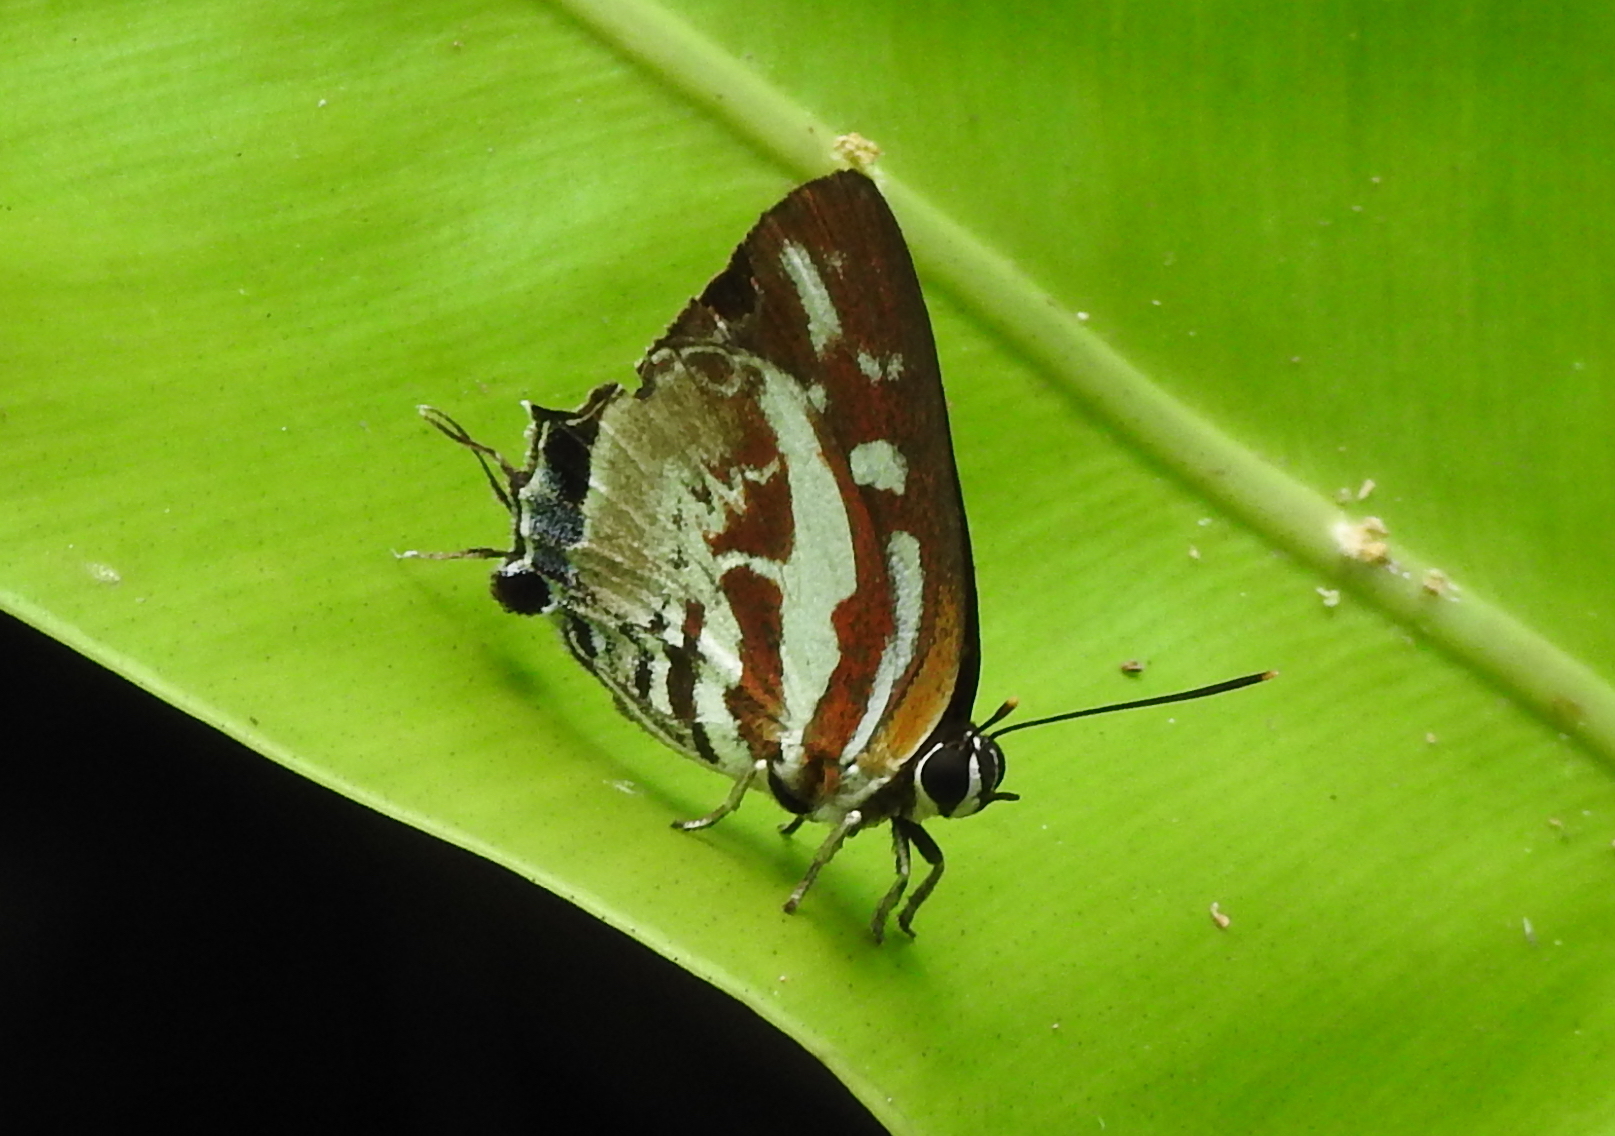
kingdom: Animalia
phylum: Arthropoda
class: Insecta
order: Lepidoptera
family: Lycaenidae
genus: Iraota
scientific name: Iraota rochana
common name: Scarce silverstreak blue
